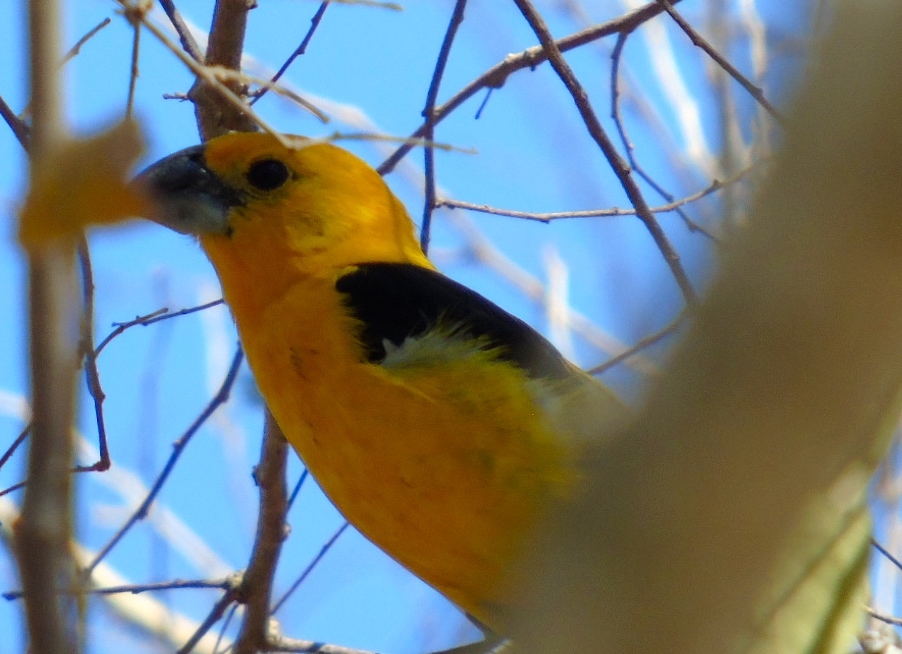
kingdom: Animalia
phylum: Chordata
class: Aves
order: Passeriformes
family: Cardinalidae
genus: Pheucticus
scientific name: Pheucticus chrysopeplus
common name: Yellow grosbeak
